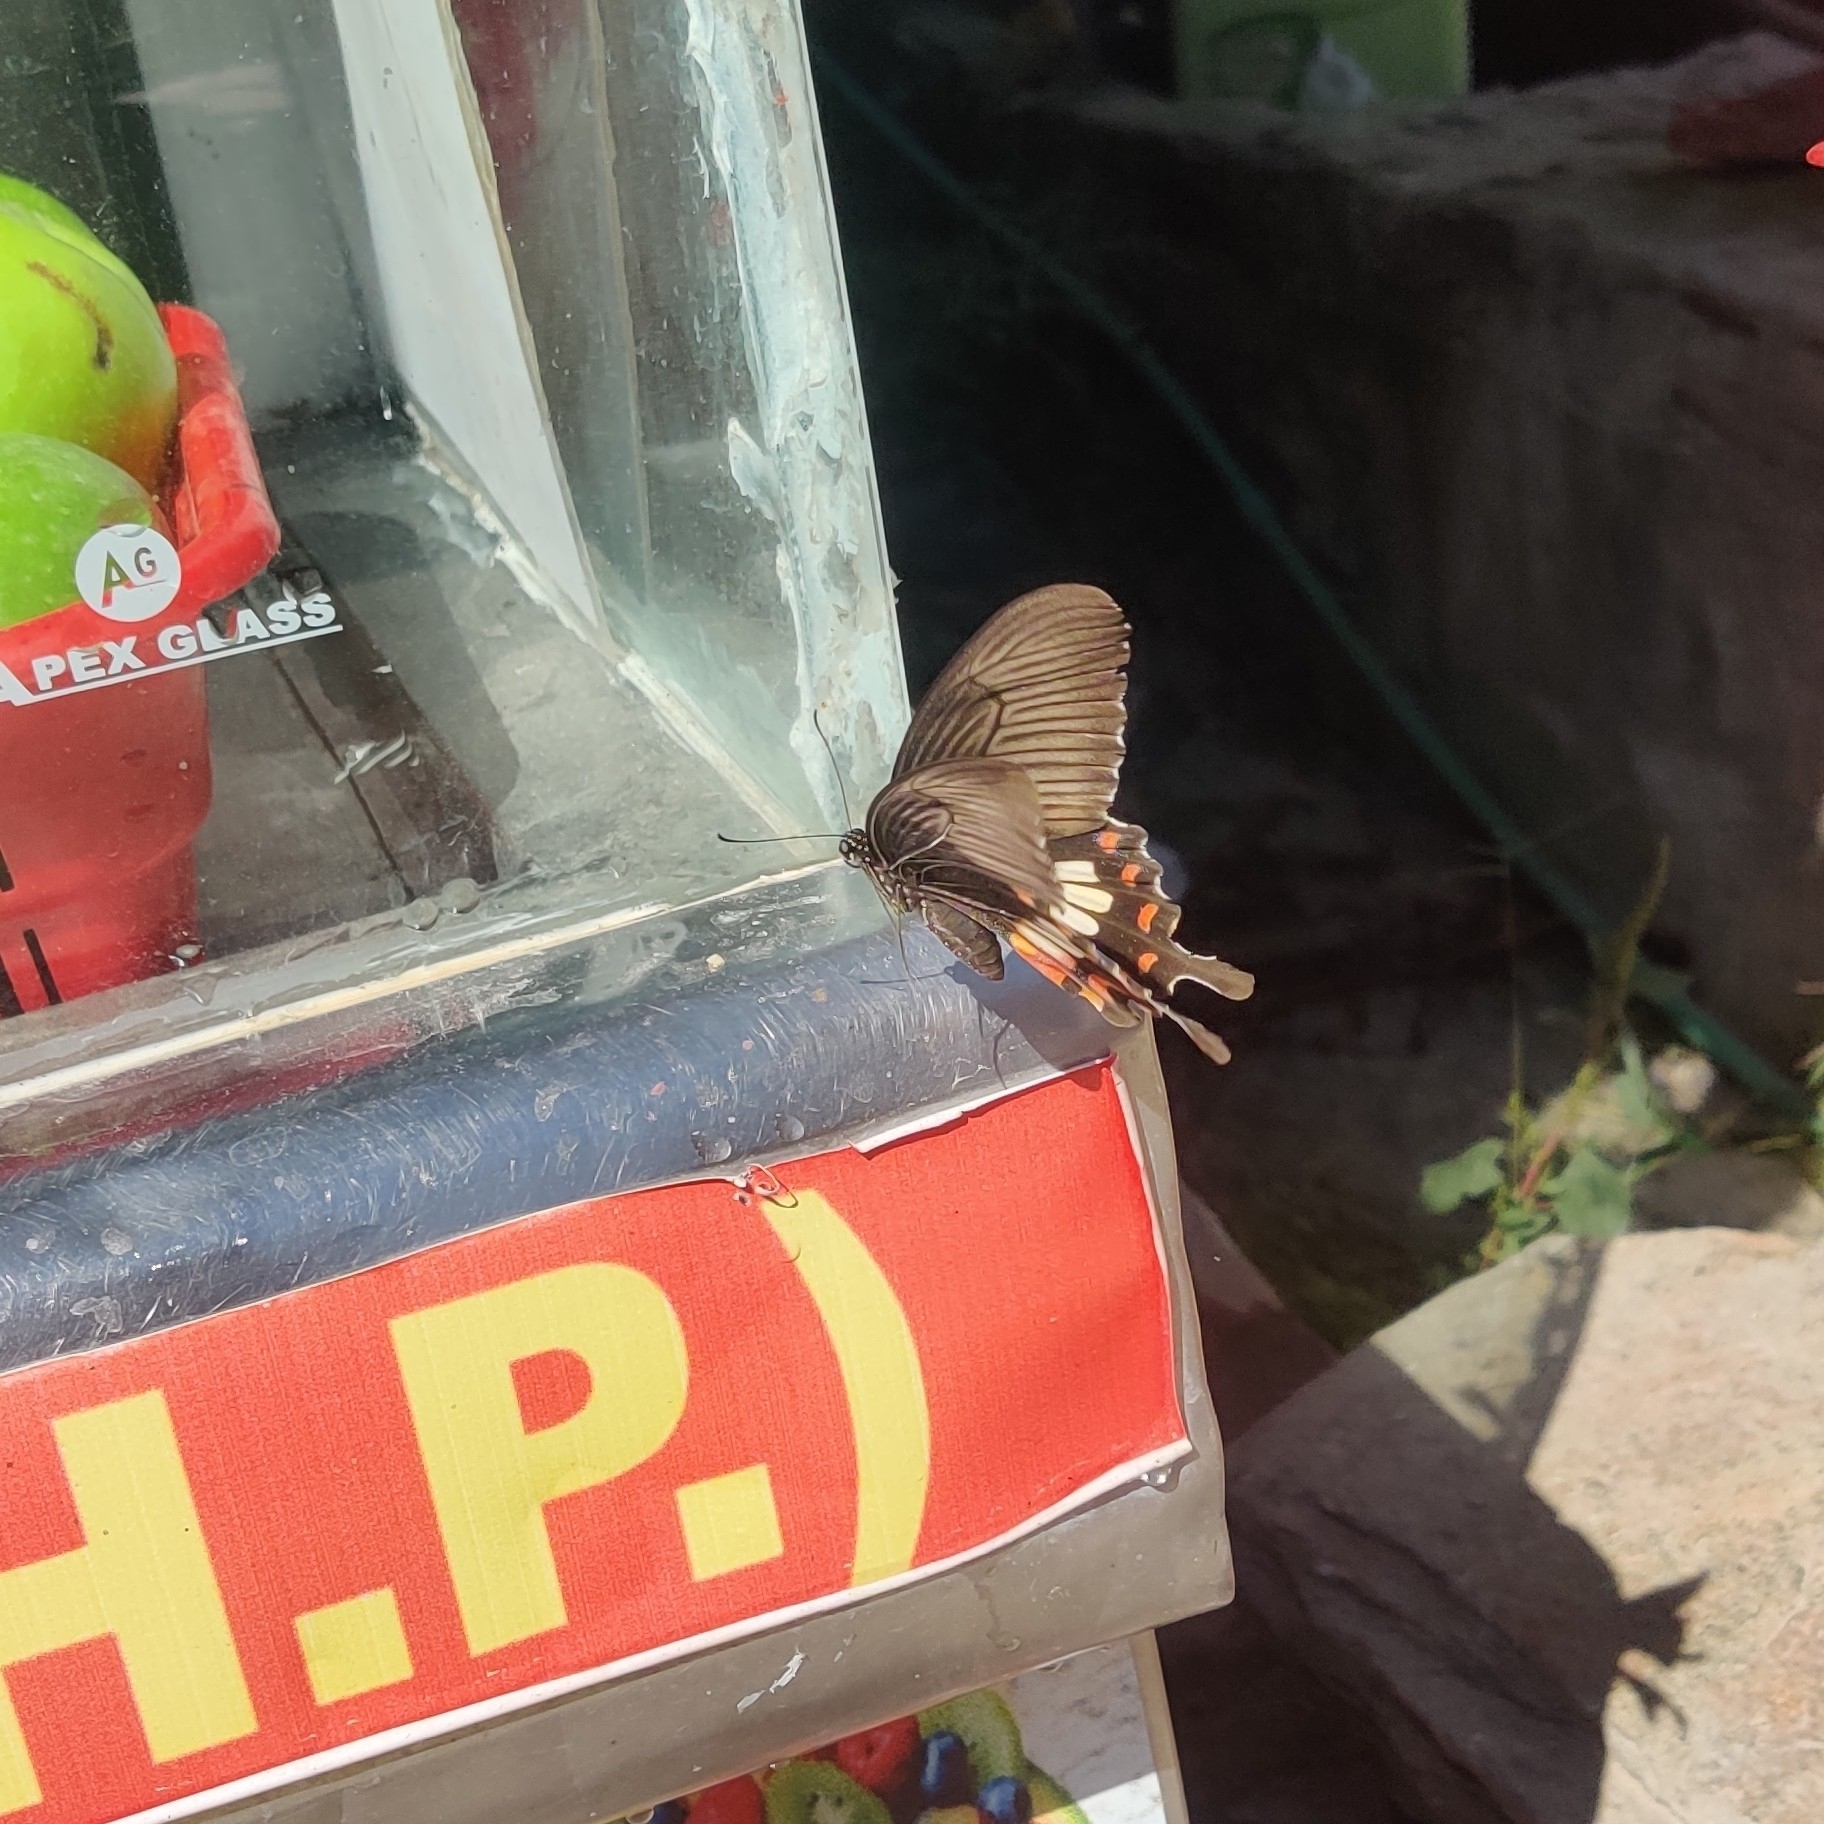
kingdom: Animalia
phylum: Arthropoda
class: Insecta
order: Lepidoptera
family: Papilionidae
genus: Papilio
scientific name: Papilio polytes
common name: Common mormon
